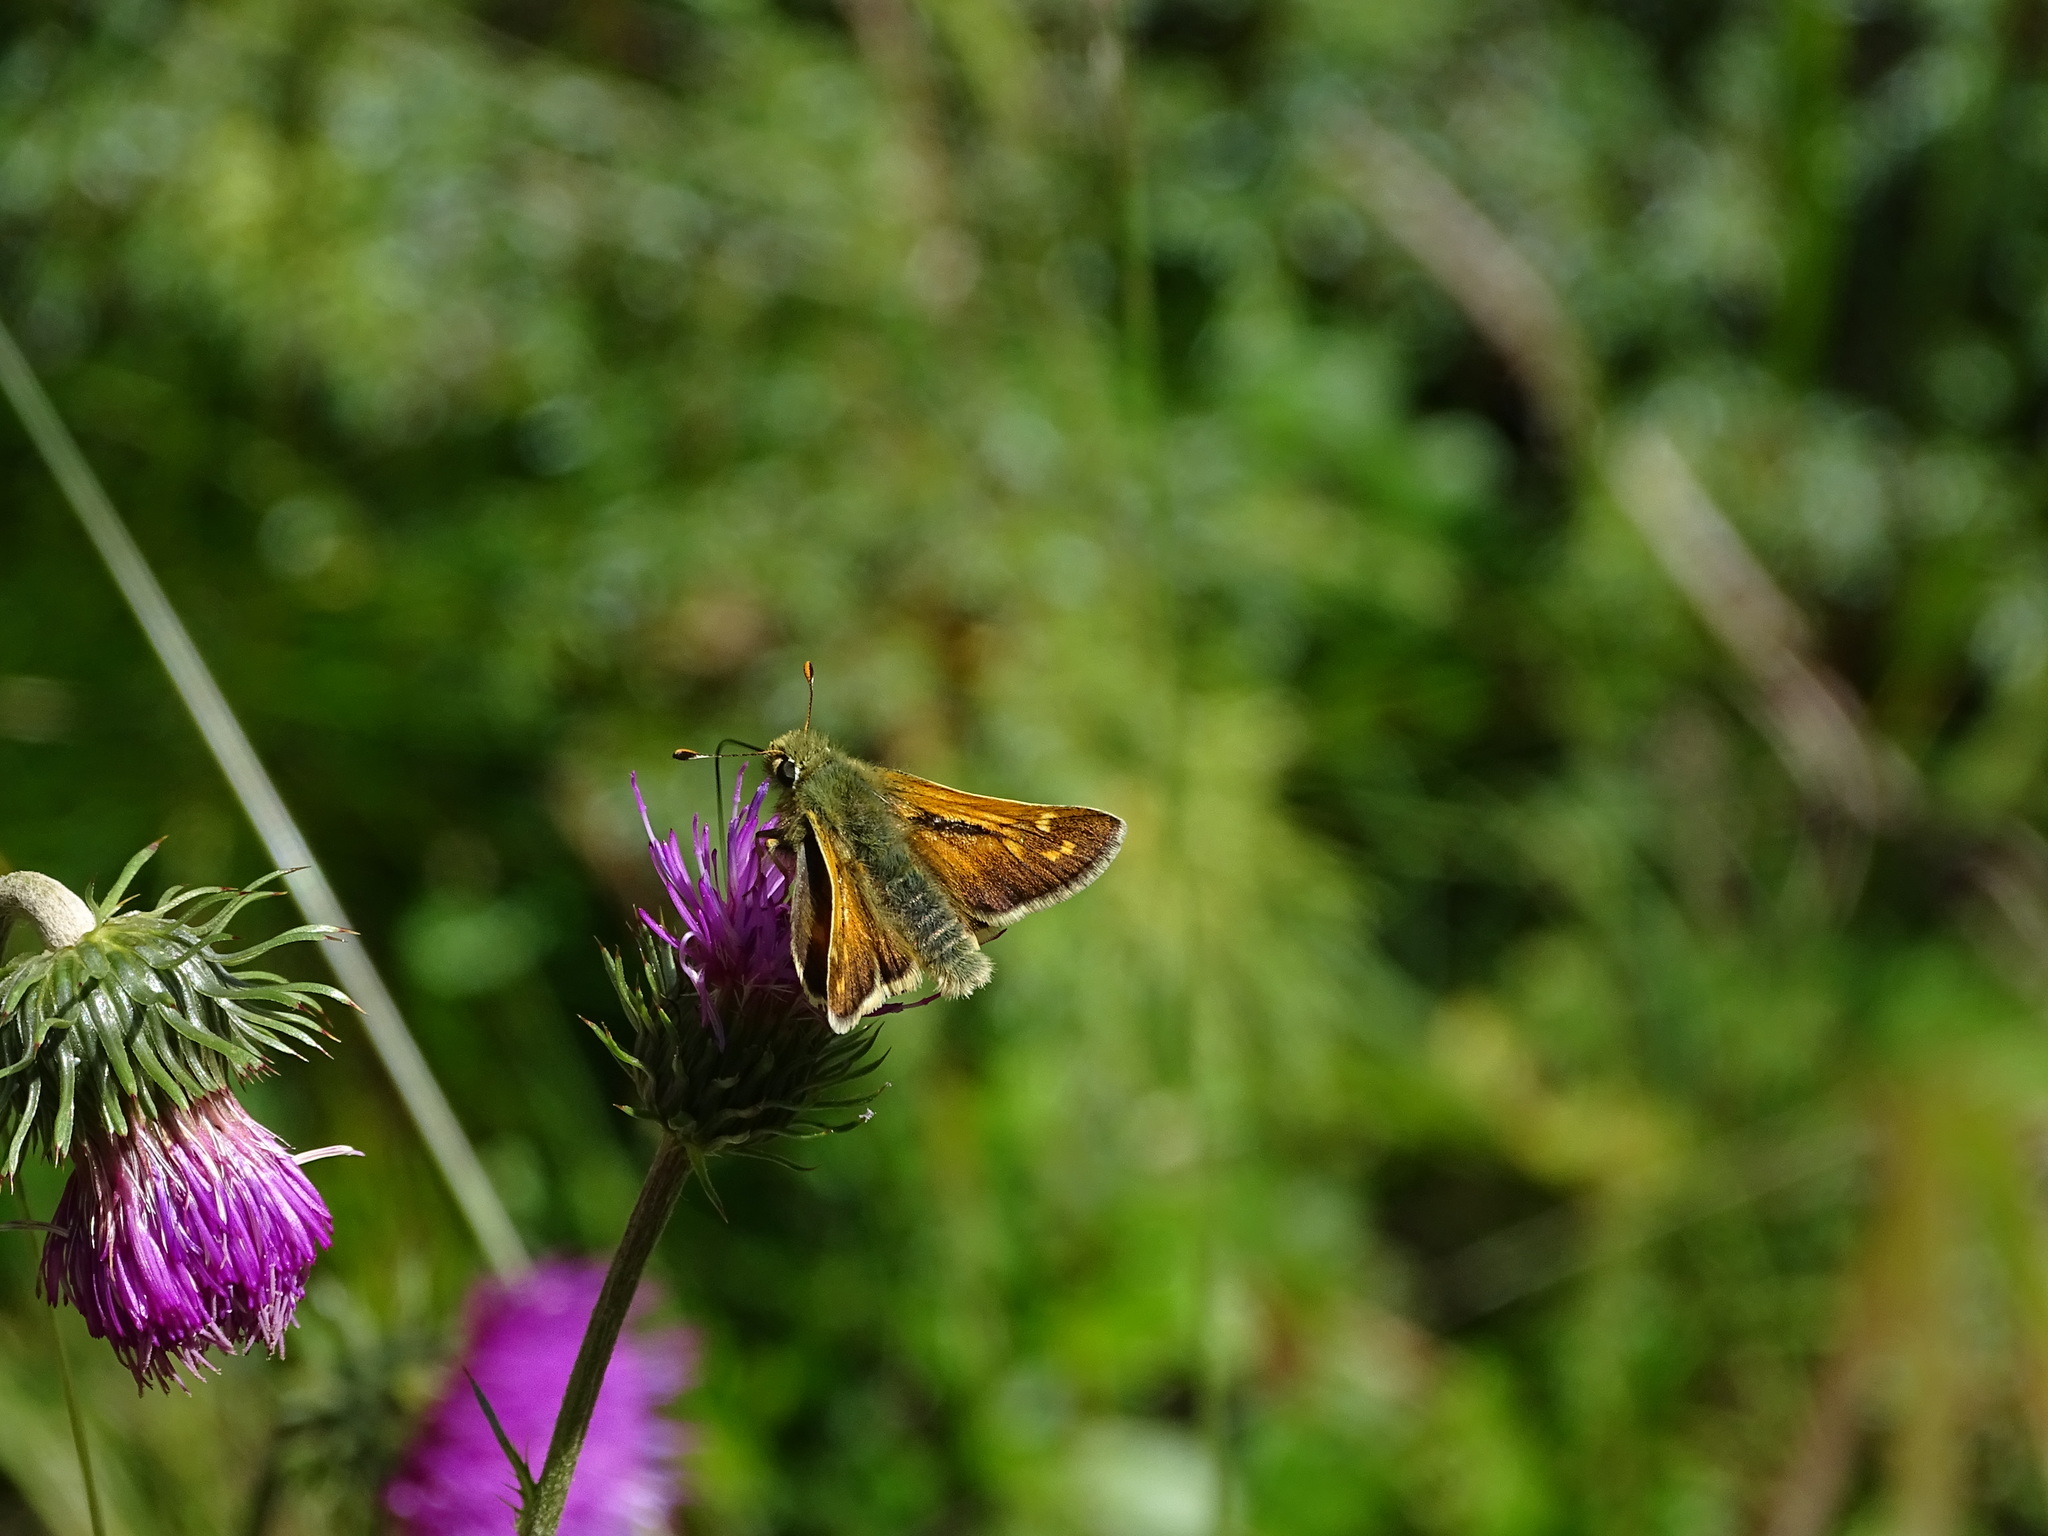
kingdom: Animalia
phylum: Arthropoda
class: Insecta
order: Lepidoptera
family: Hesperiidae
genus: Hesperia
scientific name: Hesperia comma
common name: Common branded skipper
